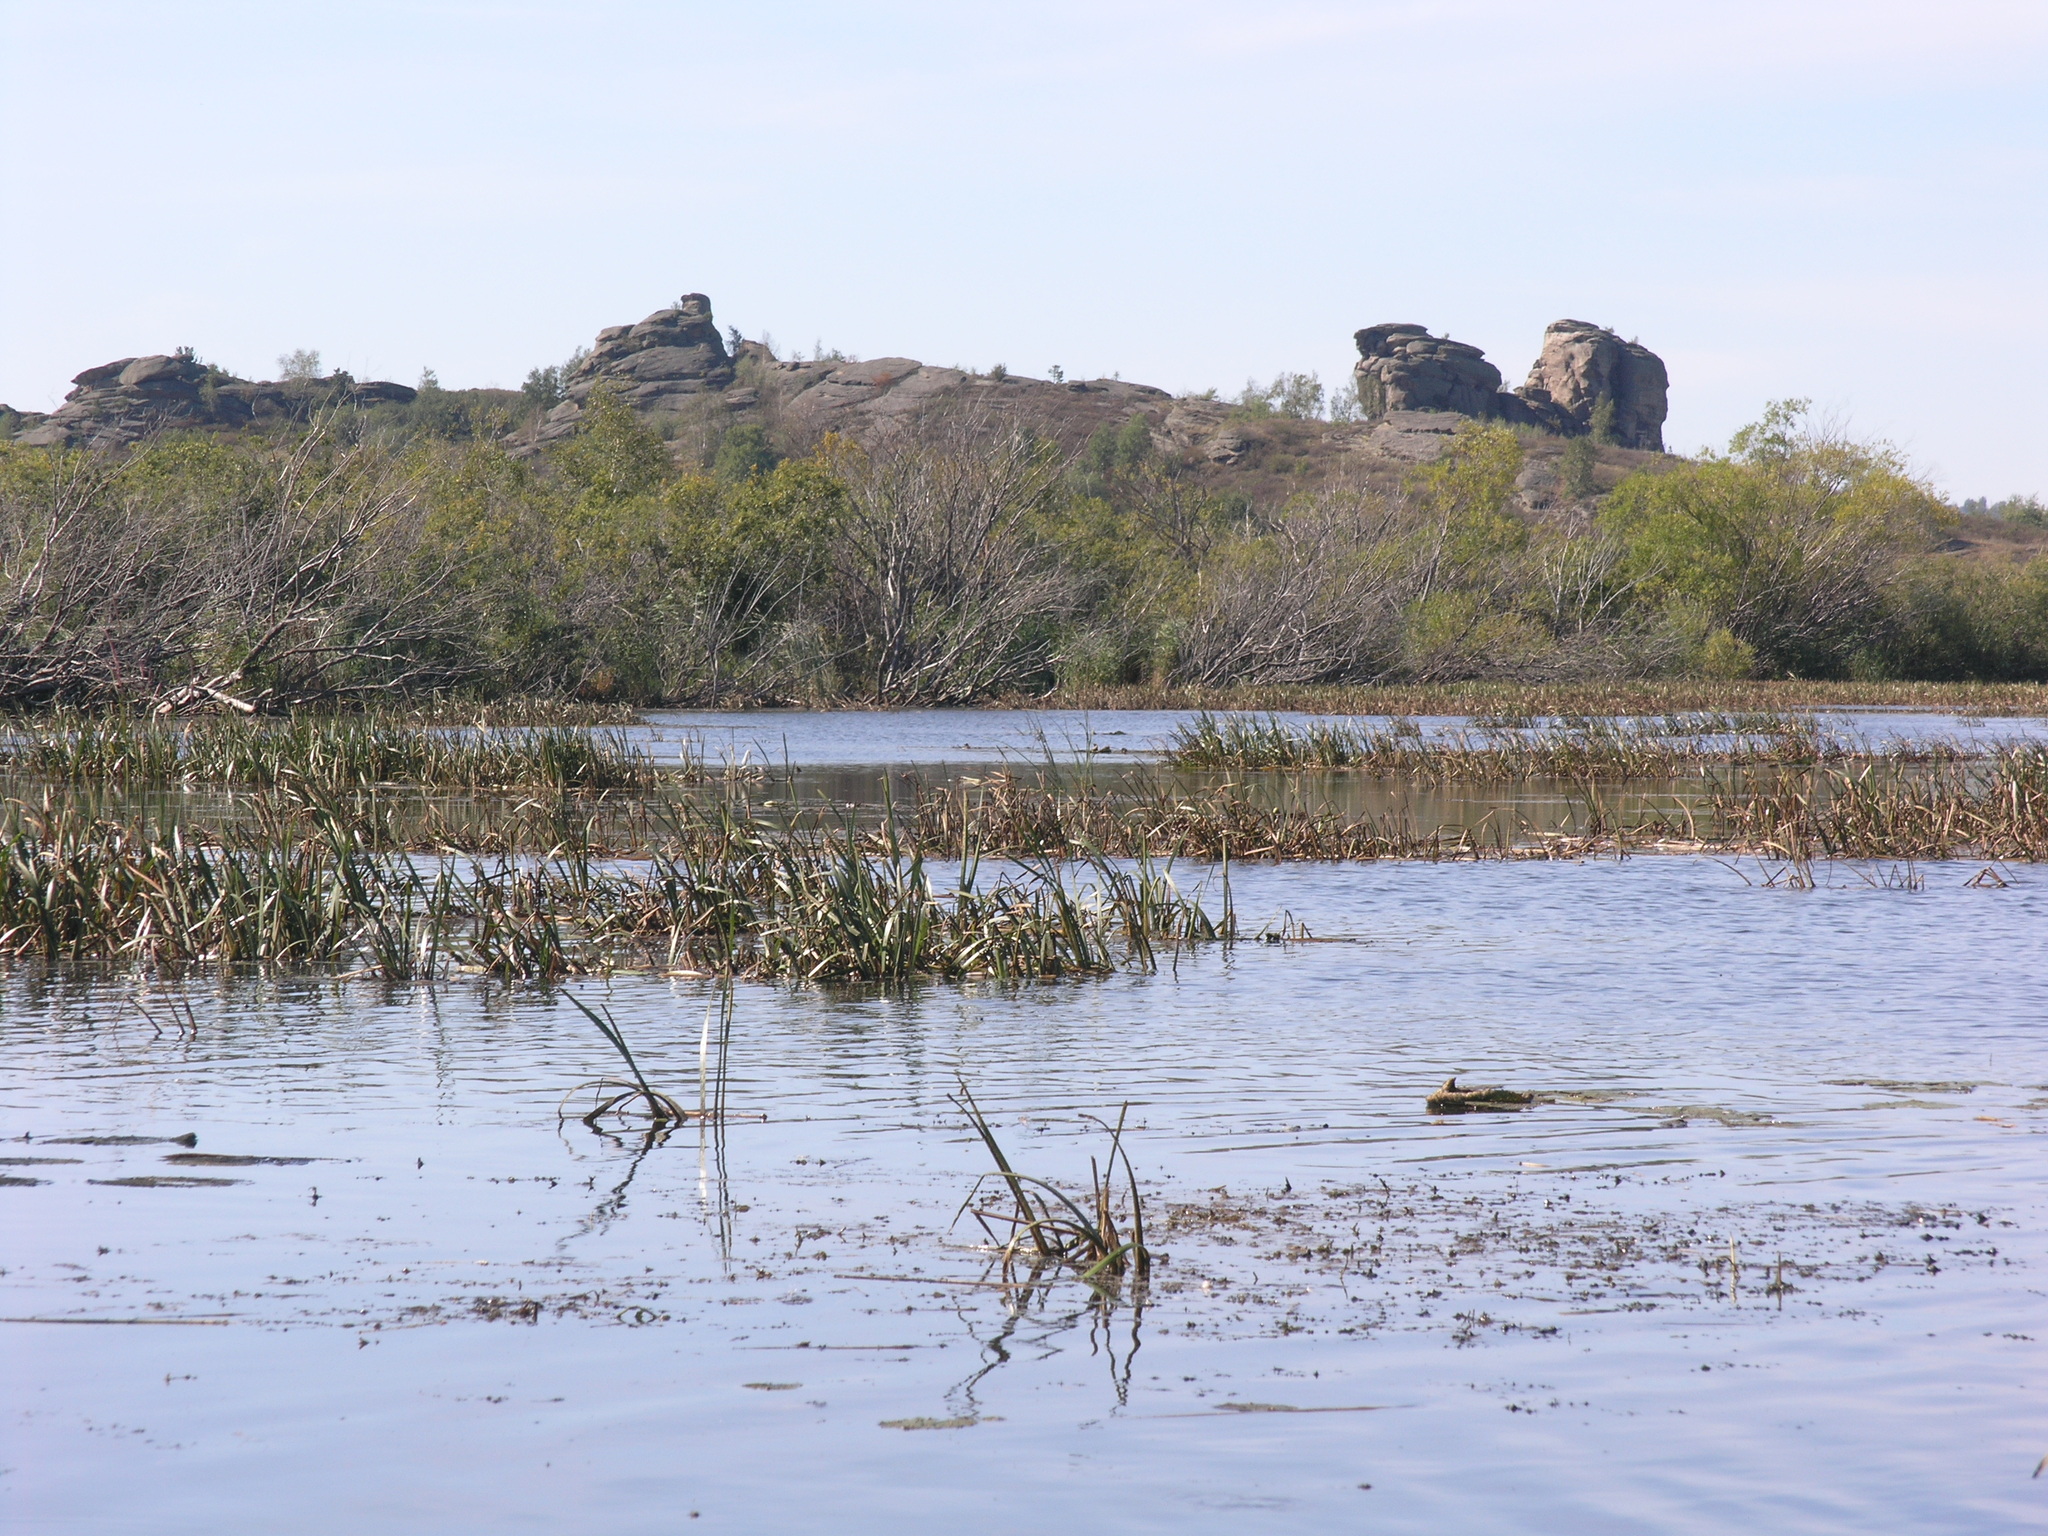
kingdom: Plantae
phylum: Tracheophyta
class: Liliopsida
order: Poales
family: Typhaceae
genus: Typha
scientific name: Typha latifolia
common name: Broadleaf cattail
